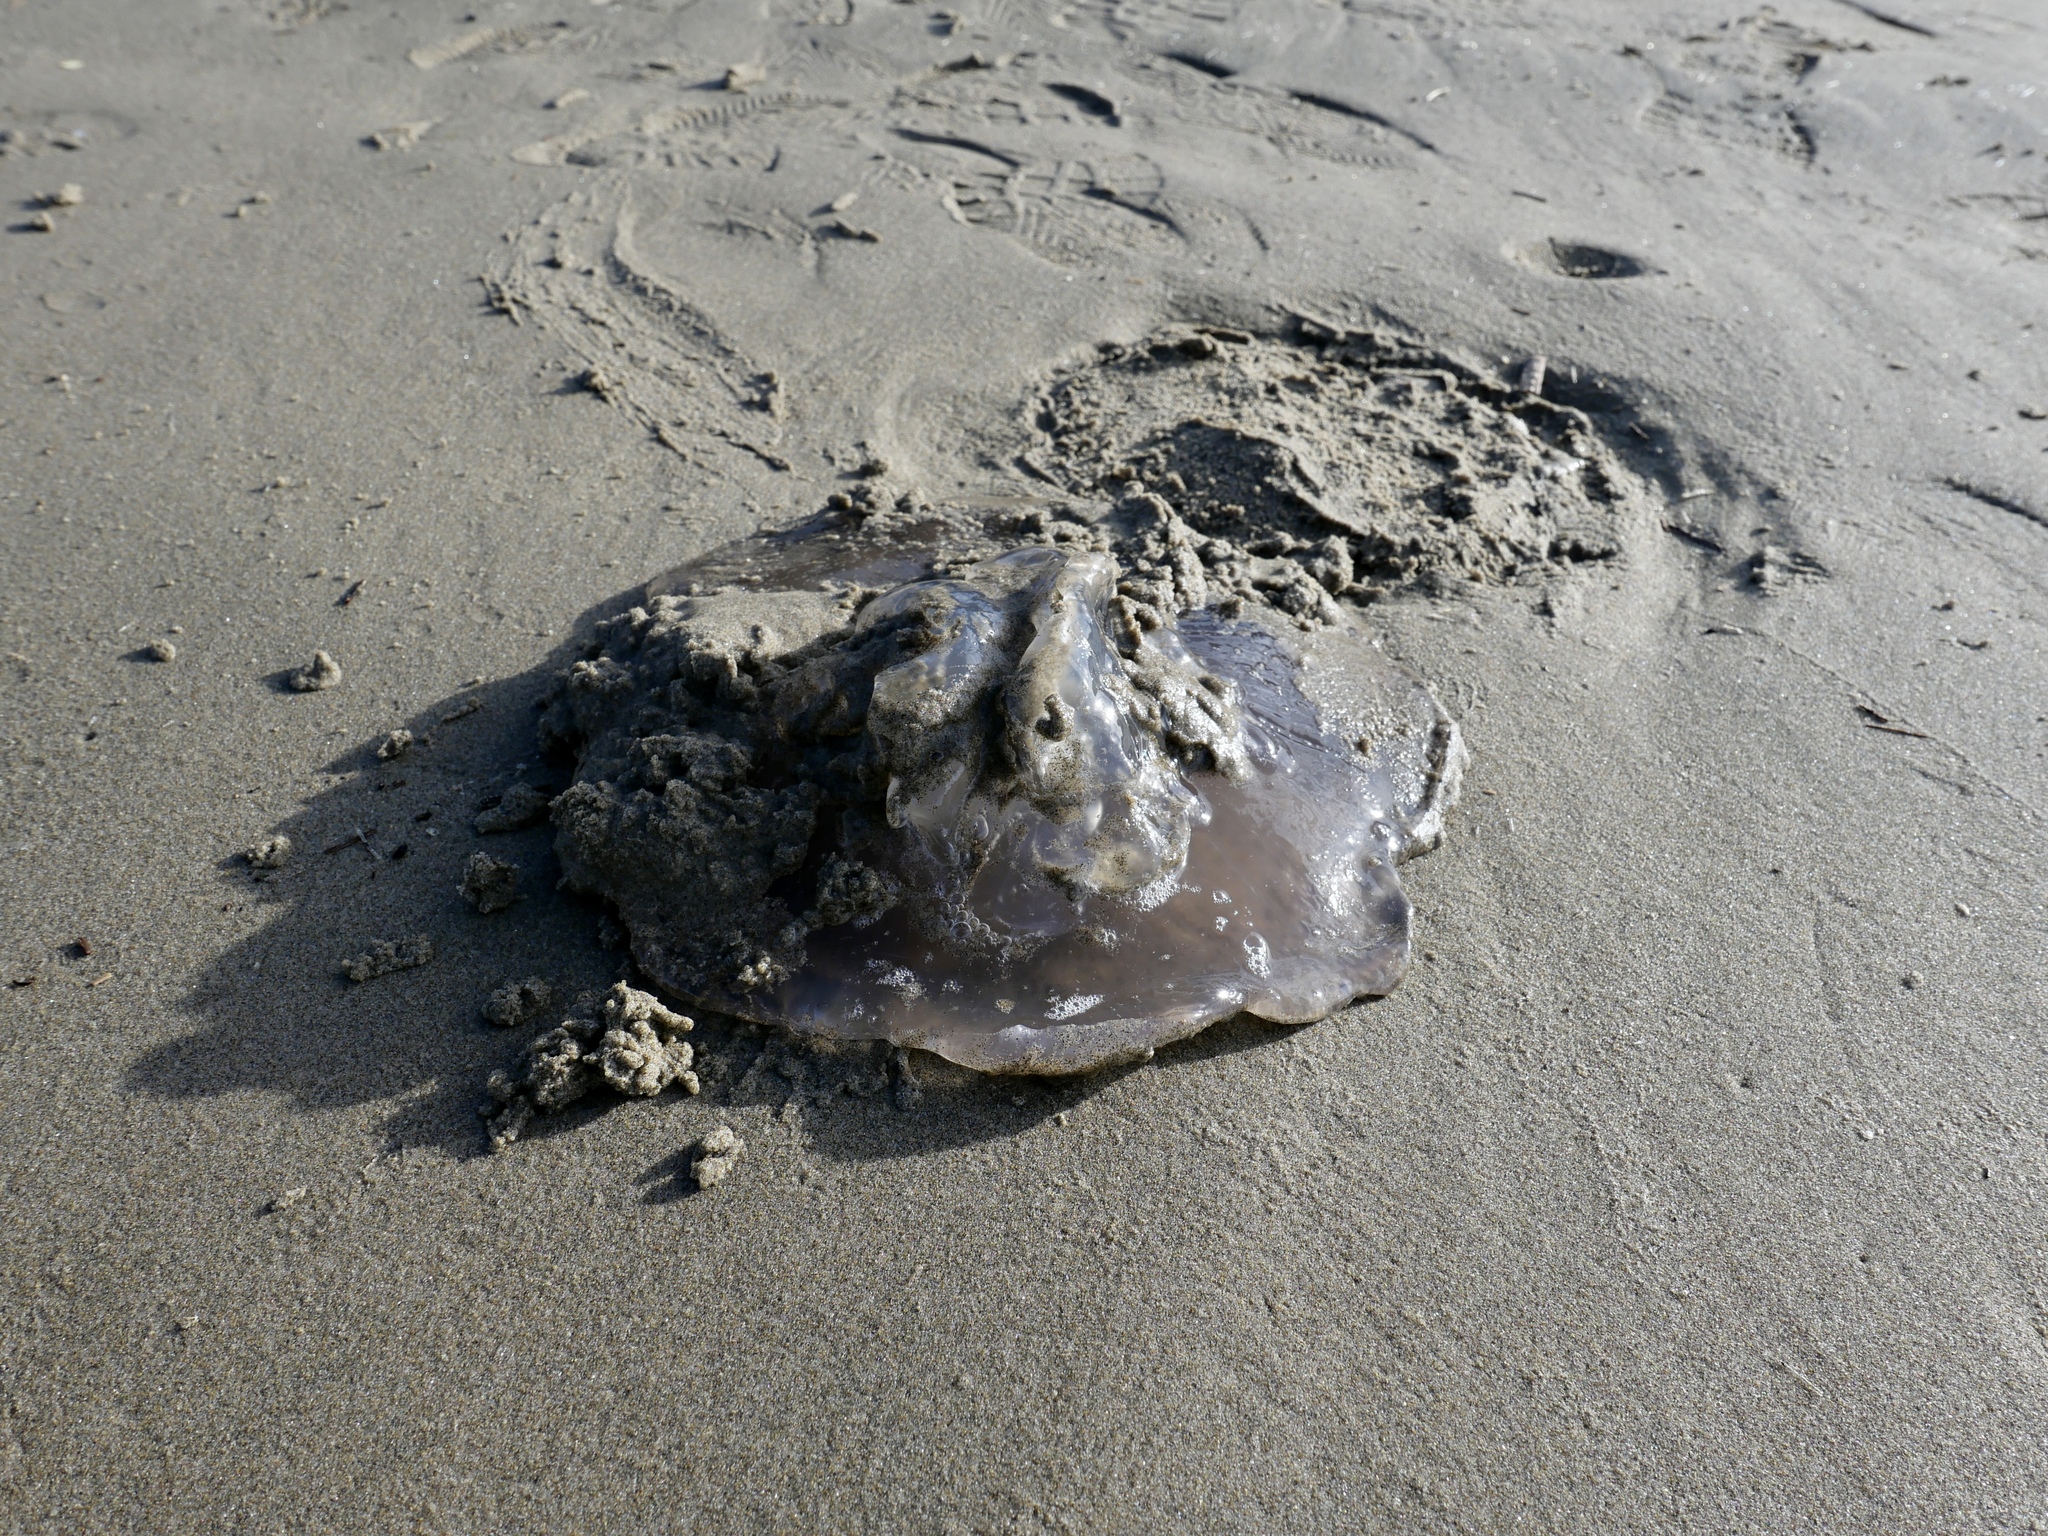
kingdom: Animalia
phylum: Cnidaria
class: Scyphozoa
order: Semaeostomeae
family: Ulmaridae
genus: Aurelia
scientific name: Aurelia labiata
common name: Pacific moon jelly
